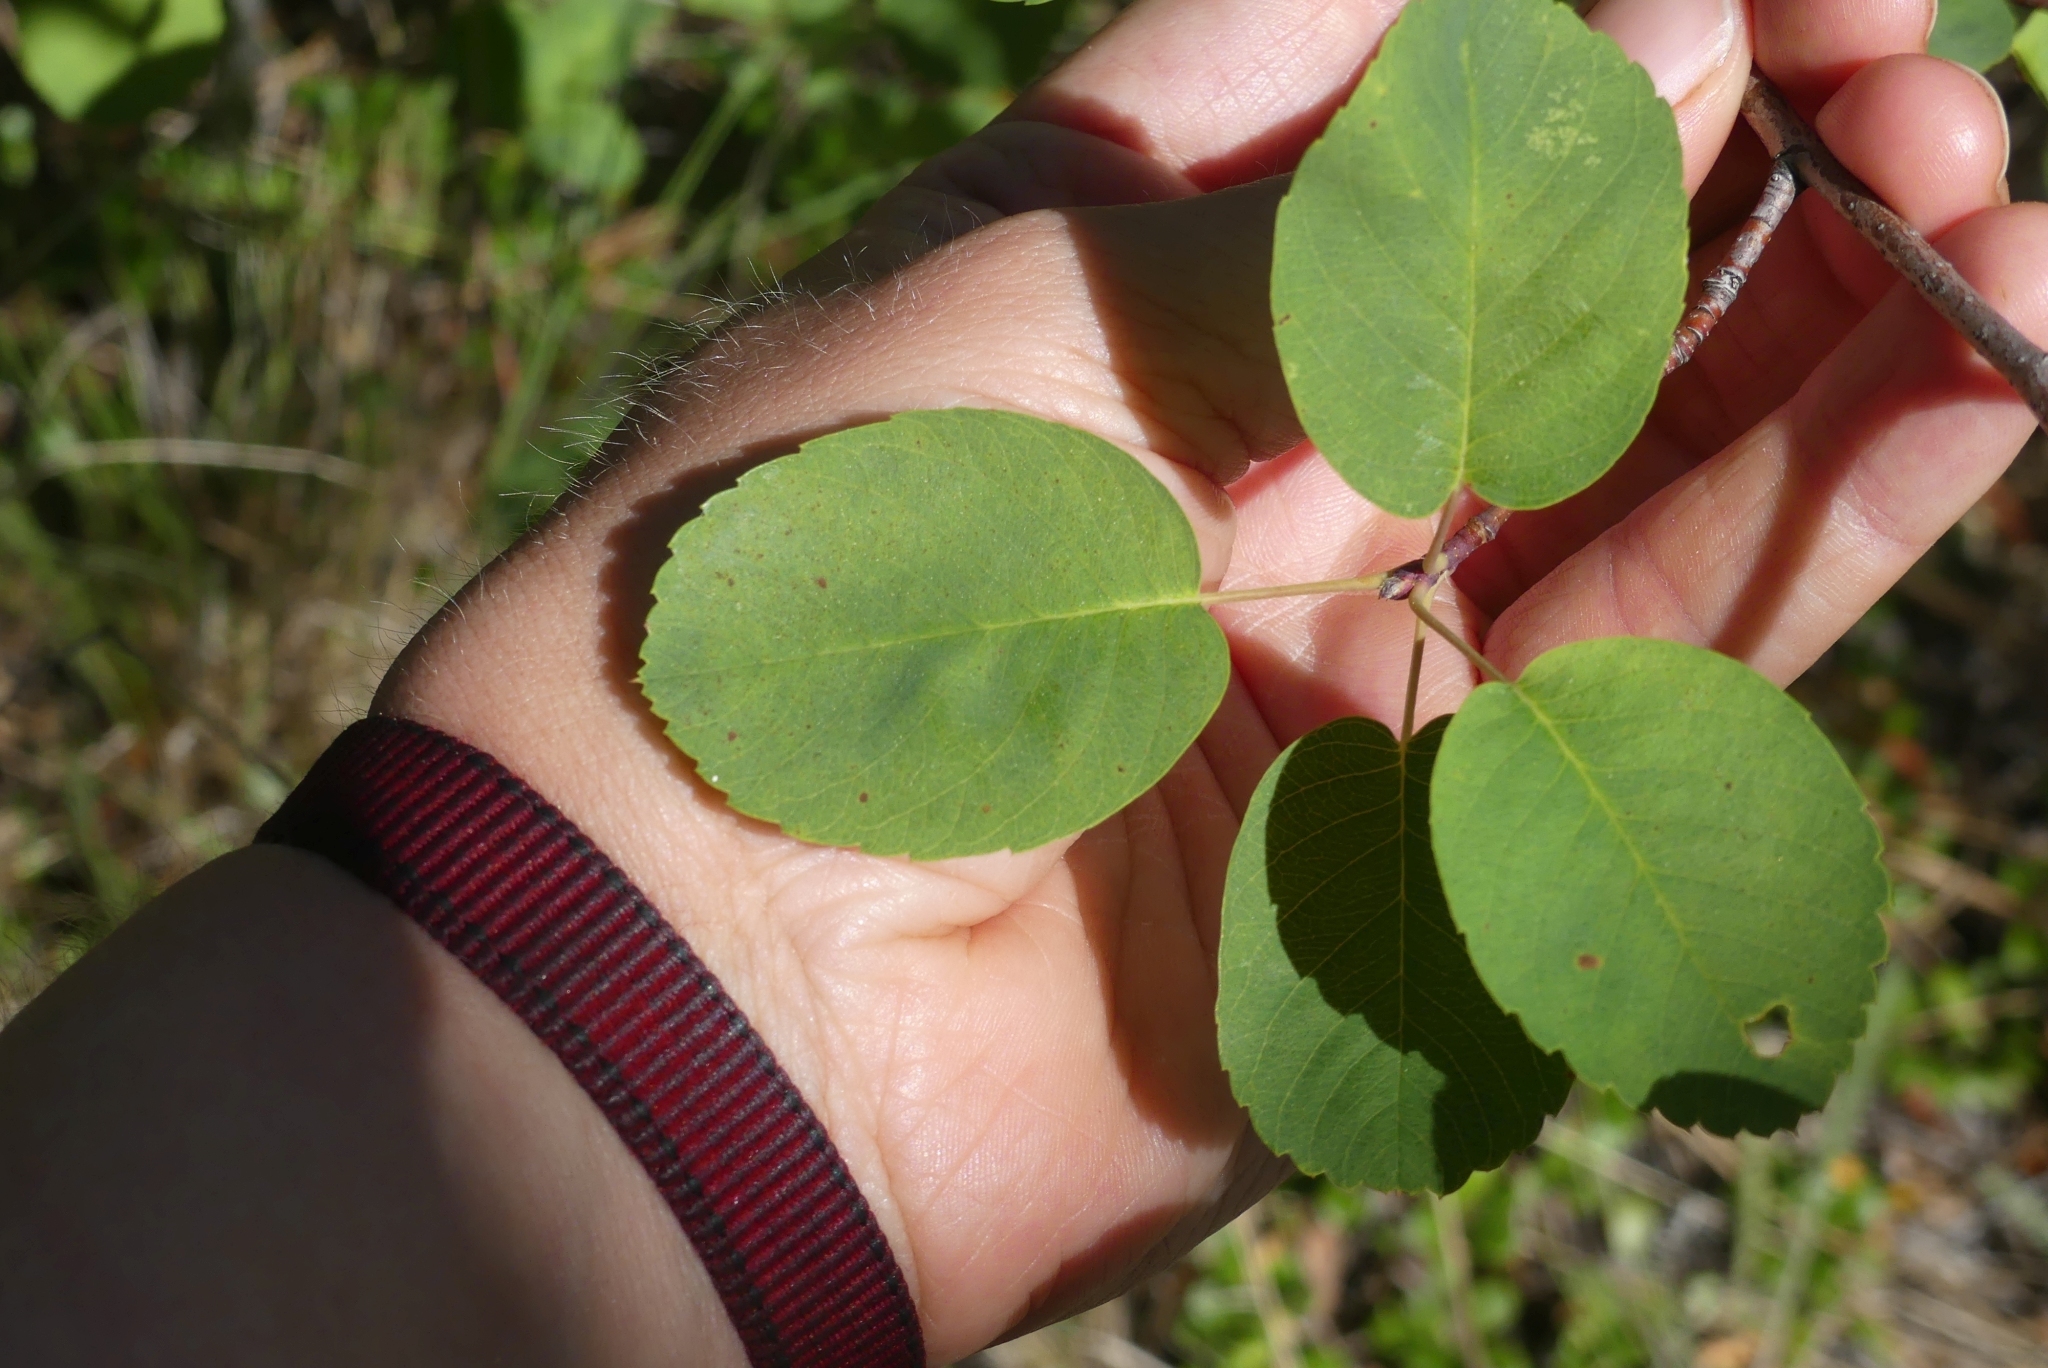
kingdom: Plantae
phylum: Tracheophyta
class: Magnoliopsida
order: Rosales
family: Rosaceae
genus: Amelanchier
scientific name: Amelanchier alnifolia
